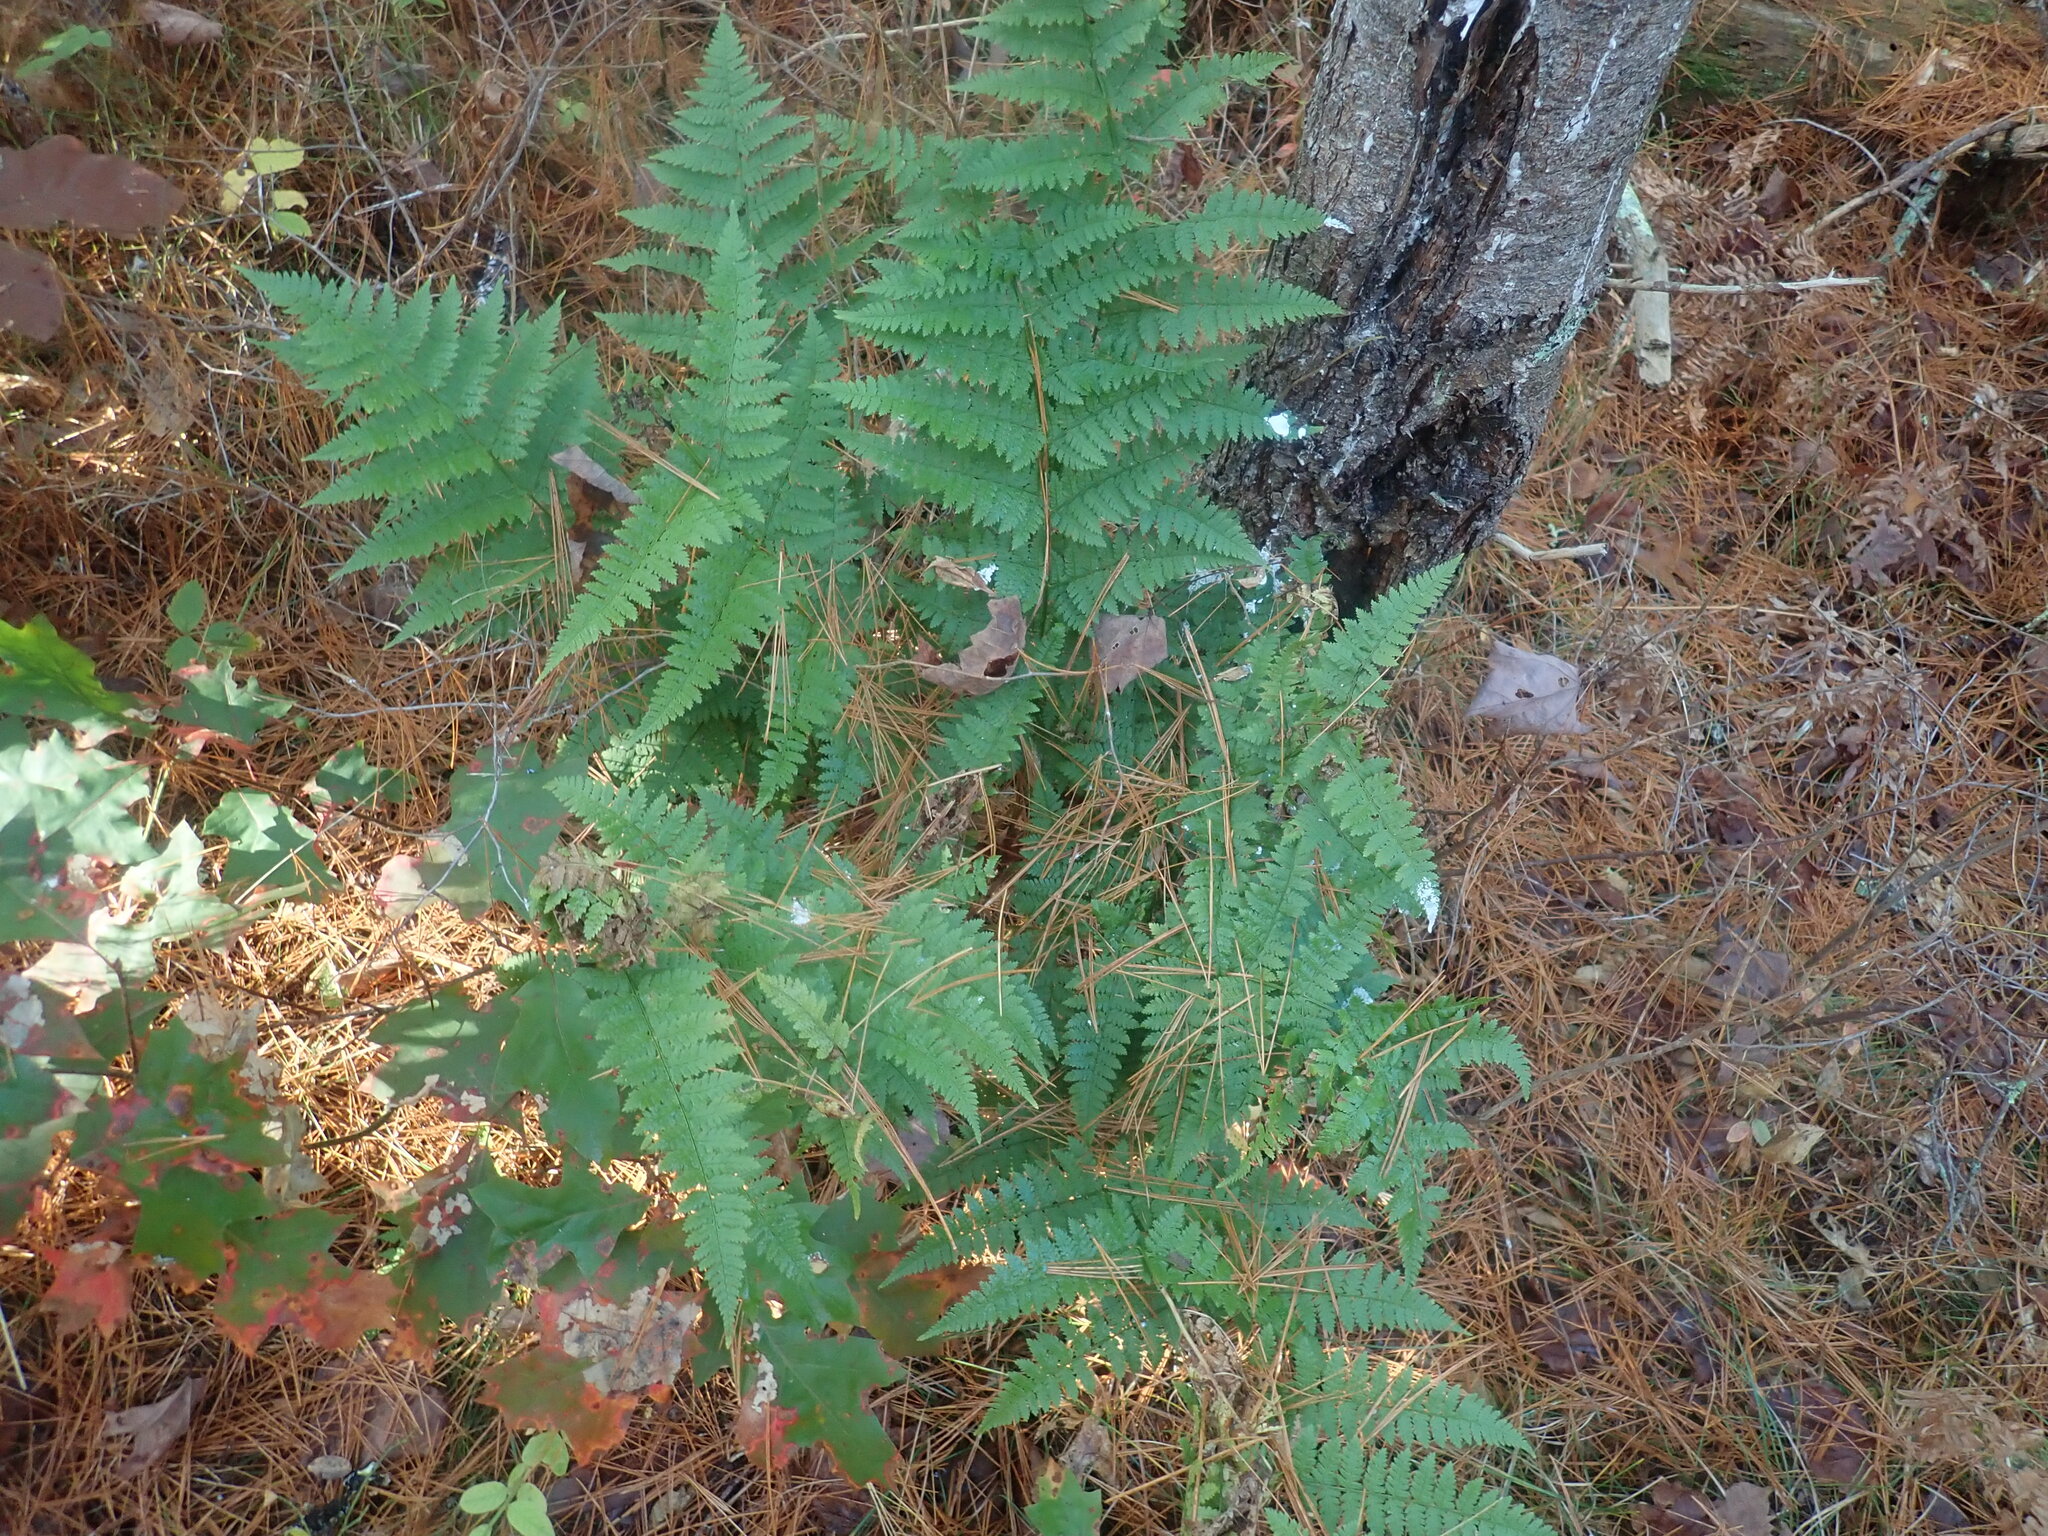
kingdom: Plantae
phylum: Tracheophyta
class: Polypodiopsida
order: Polypodiales
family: Dryopteridaceae
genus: Dryopteris
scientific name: Dryopteris intermedia
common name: Evergreen wood fern
